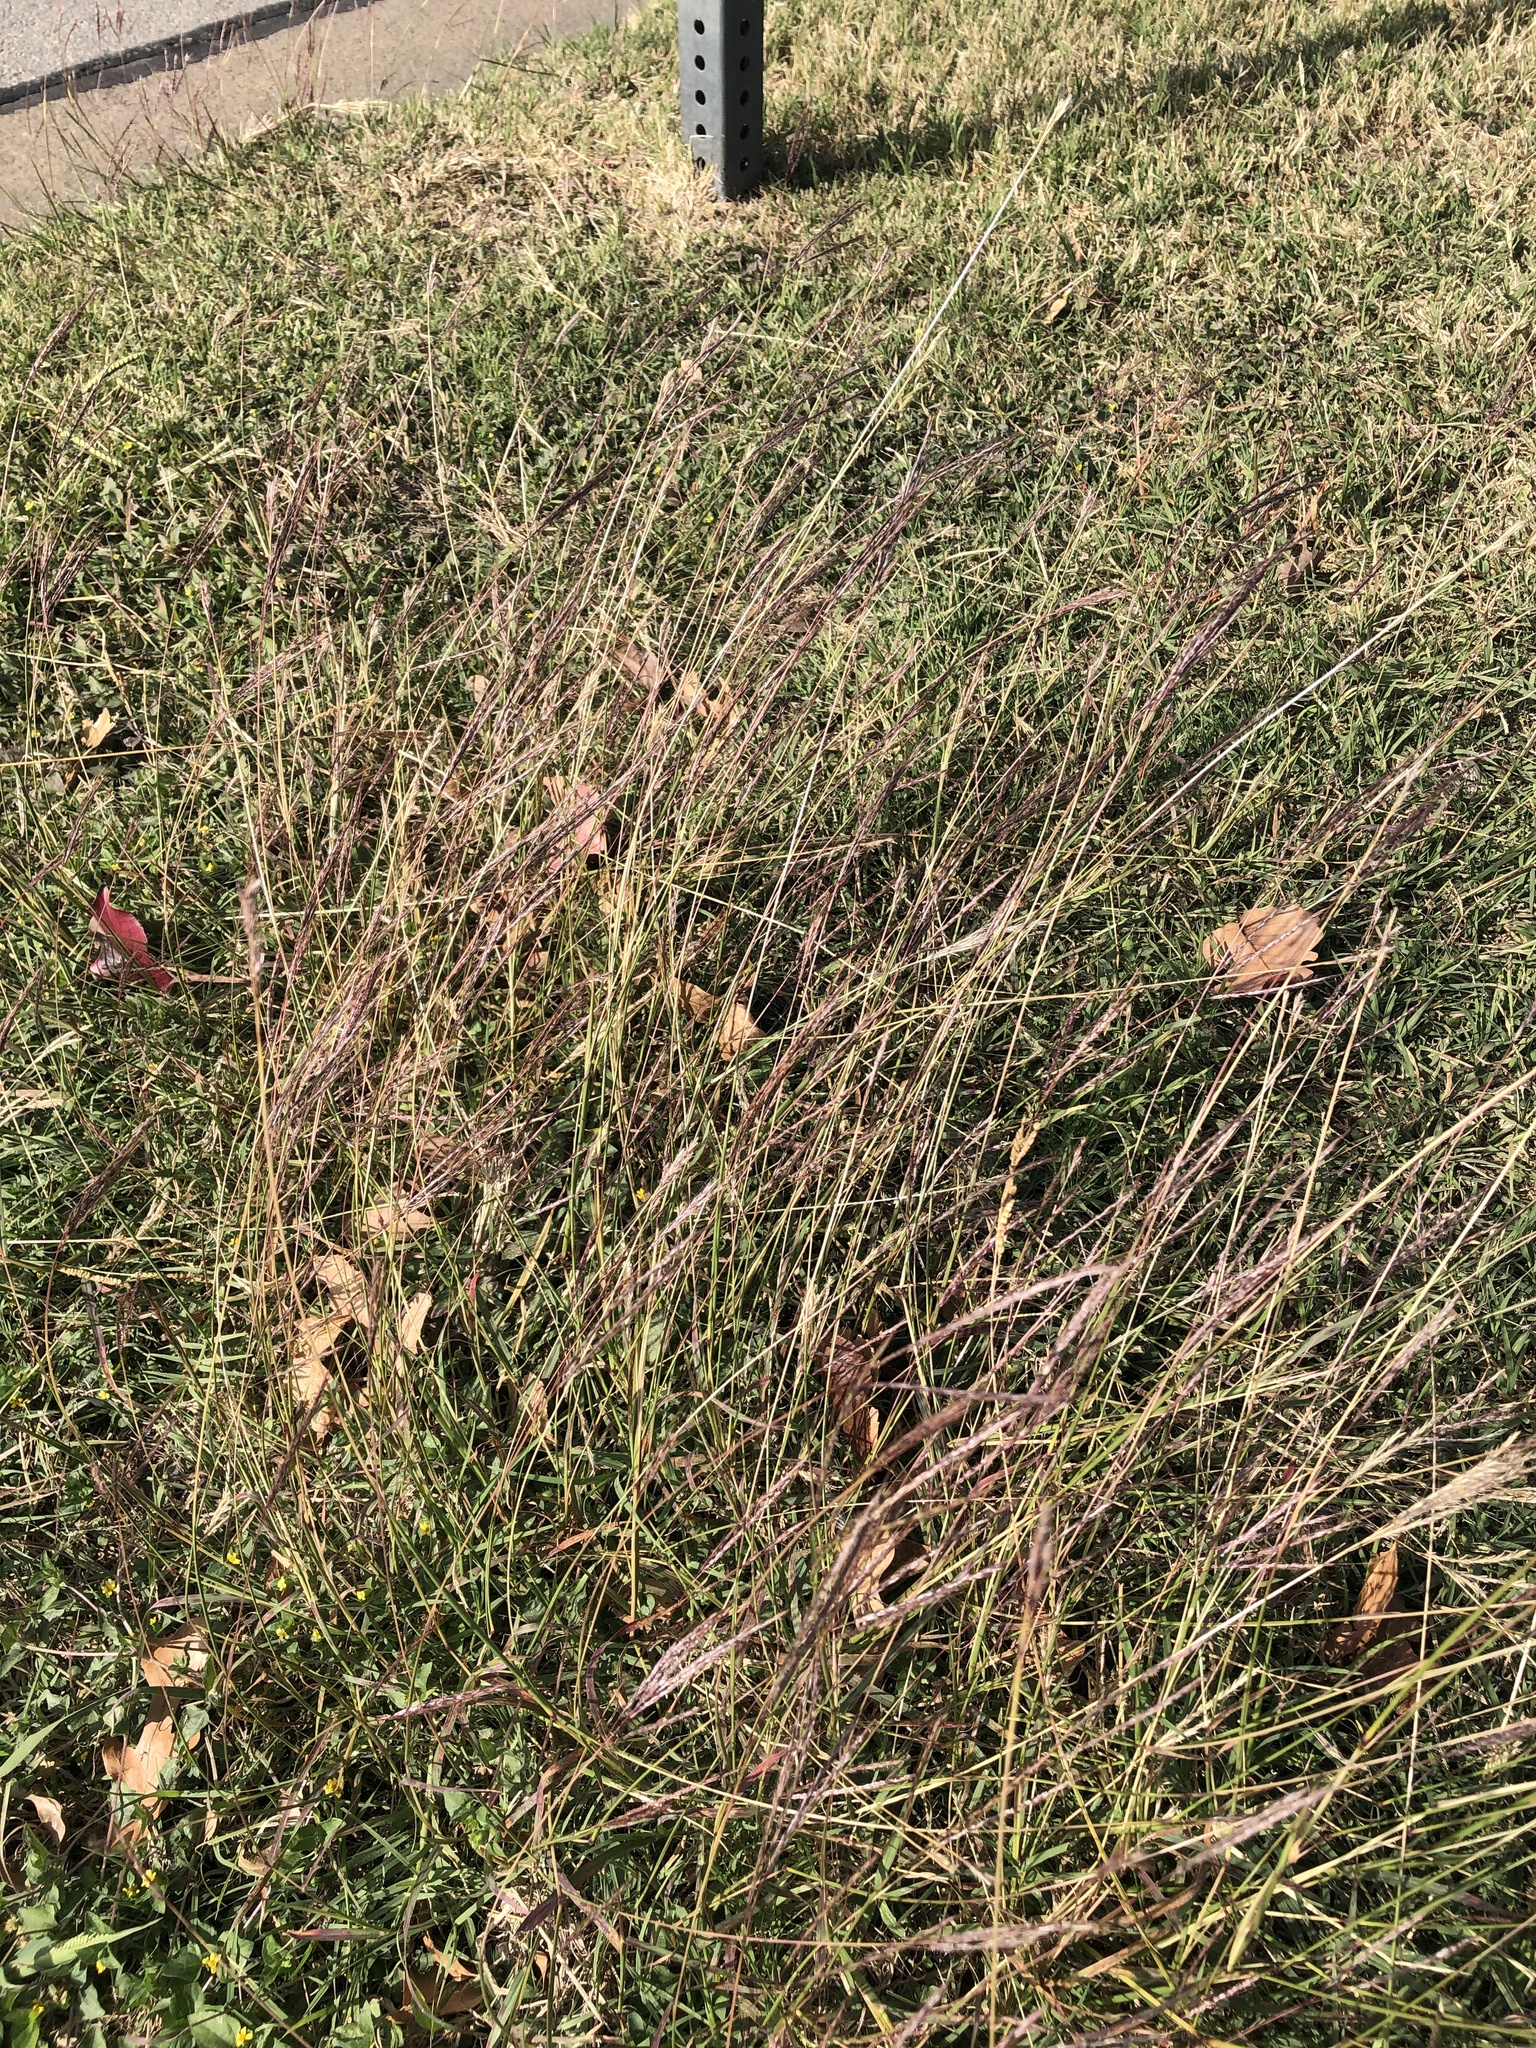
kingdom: Plantae
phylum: Tracheophyta
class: Liliopsida
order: Poales
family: Poaceae
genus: Bothriochloa
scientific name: Bothriochloa ischaemum
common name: Yellow bluestem
